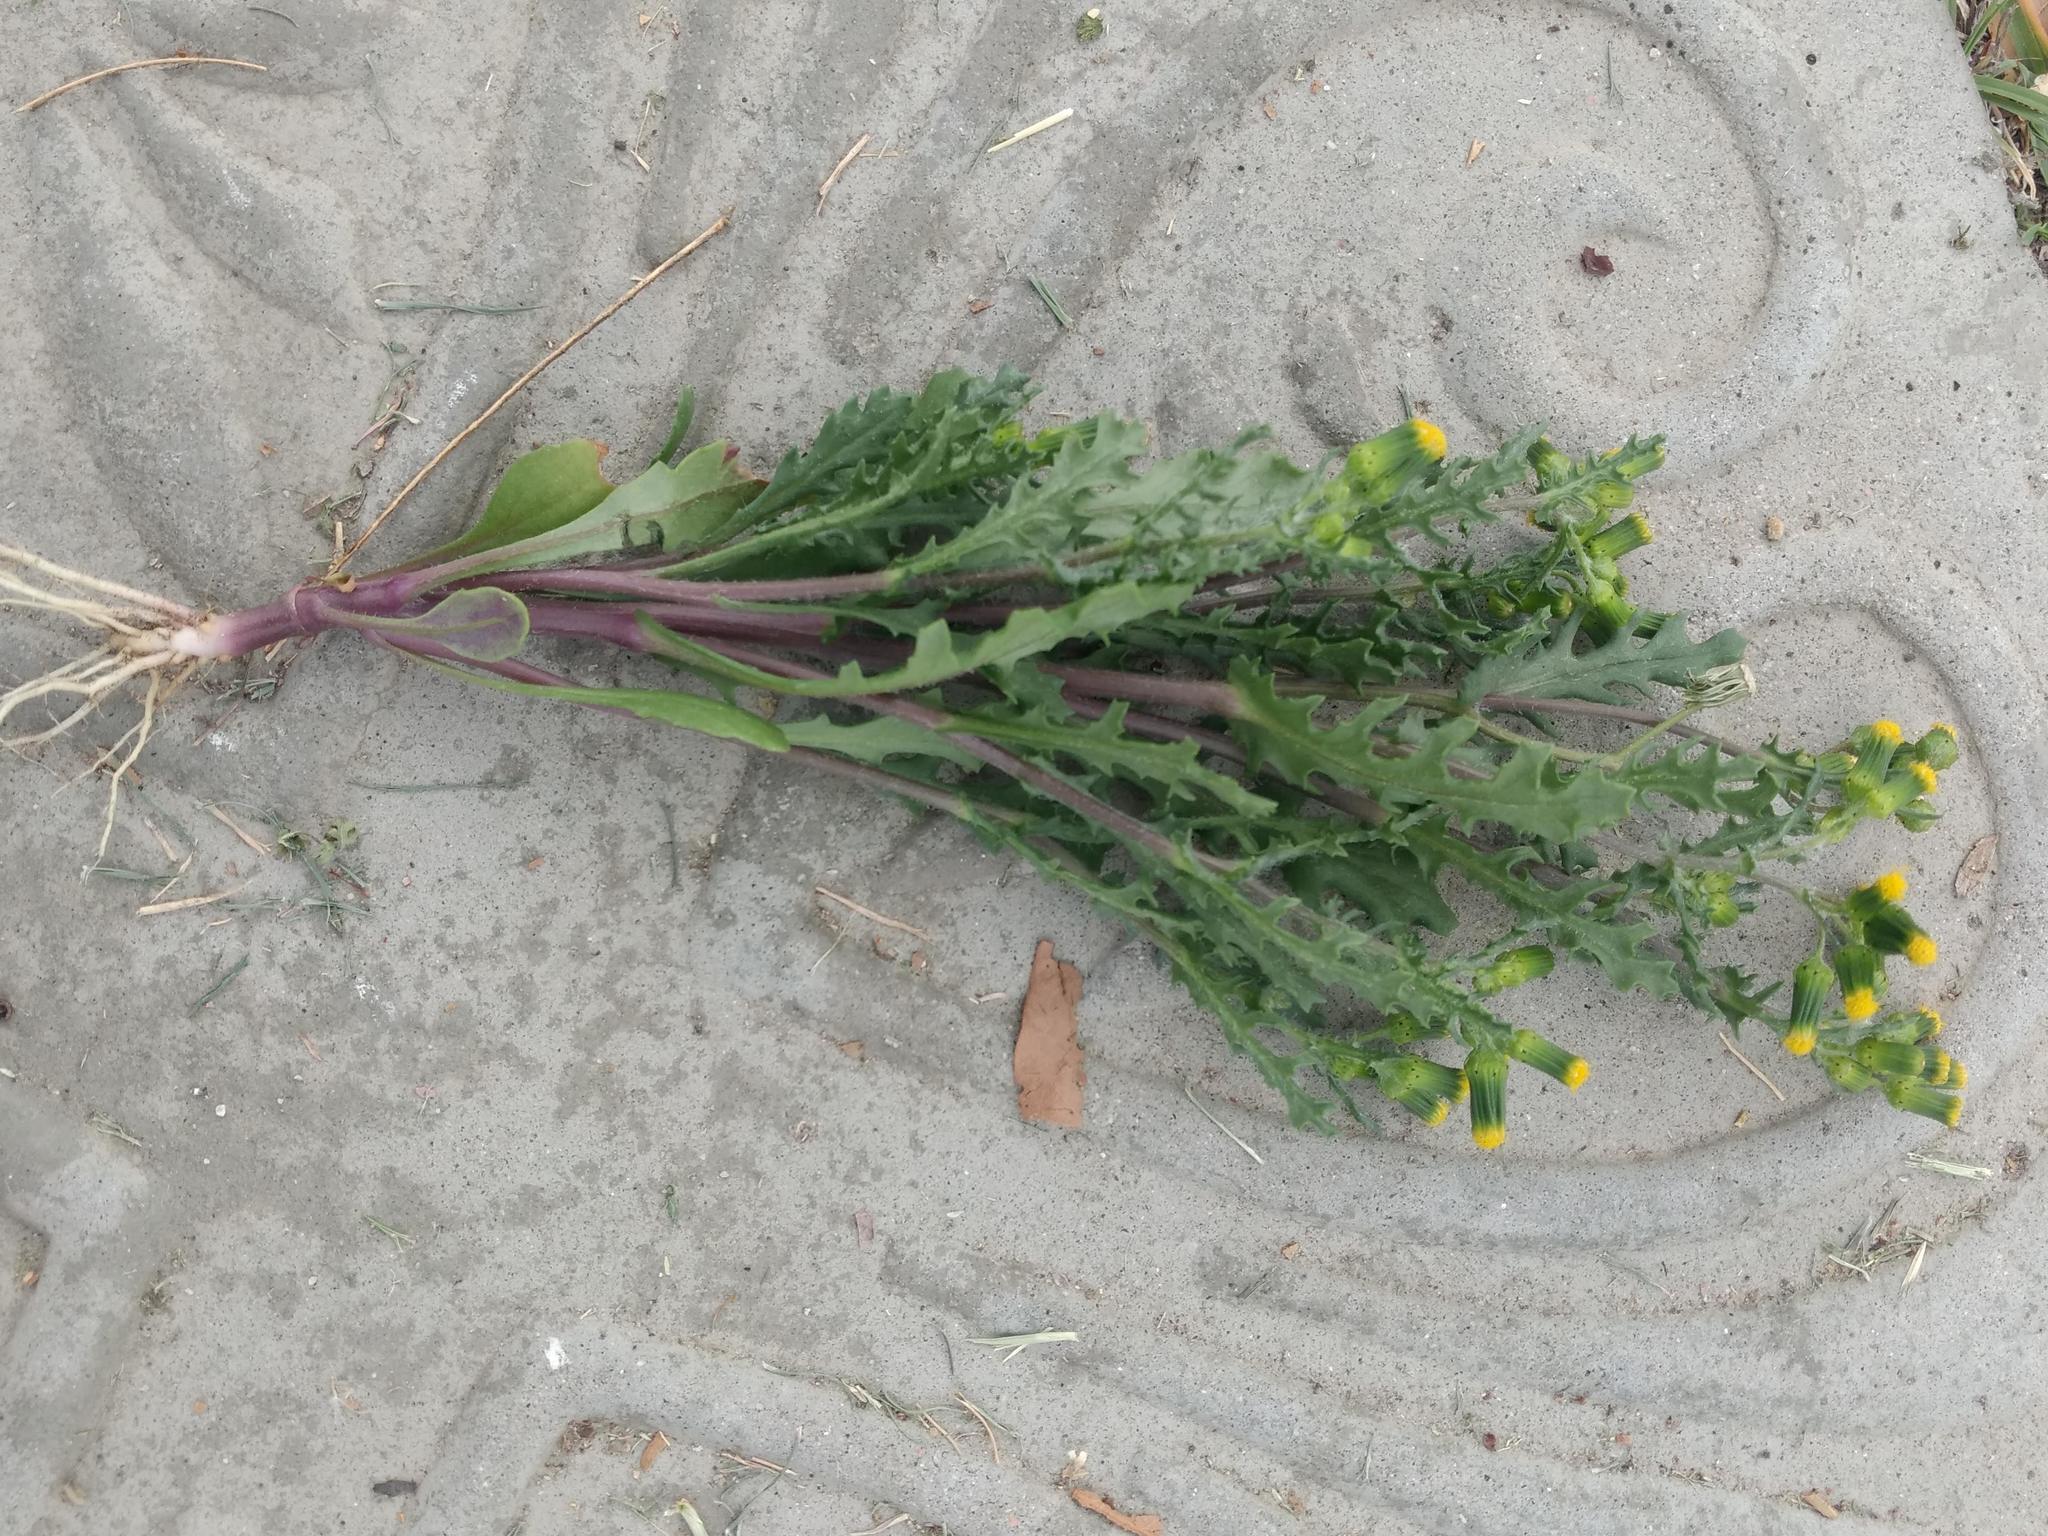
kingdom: Plantae
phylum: Tracheophyta
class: Magnoliopsida
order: Asterales
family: Asteraceae
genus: Senecio
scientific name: Senecio vulgaris
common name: Old-man-in-the-spring
